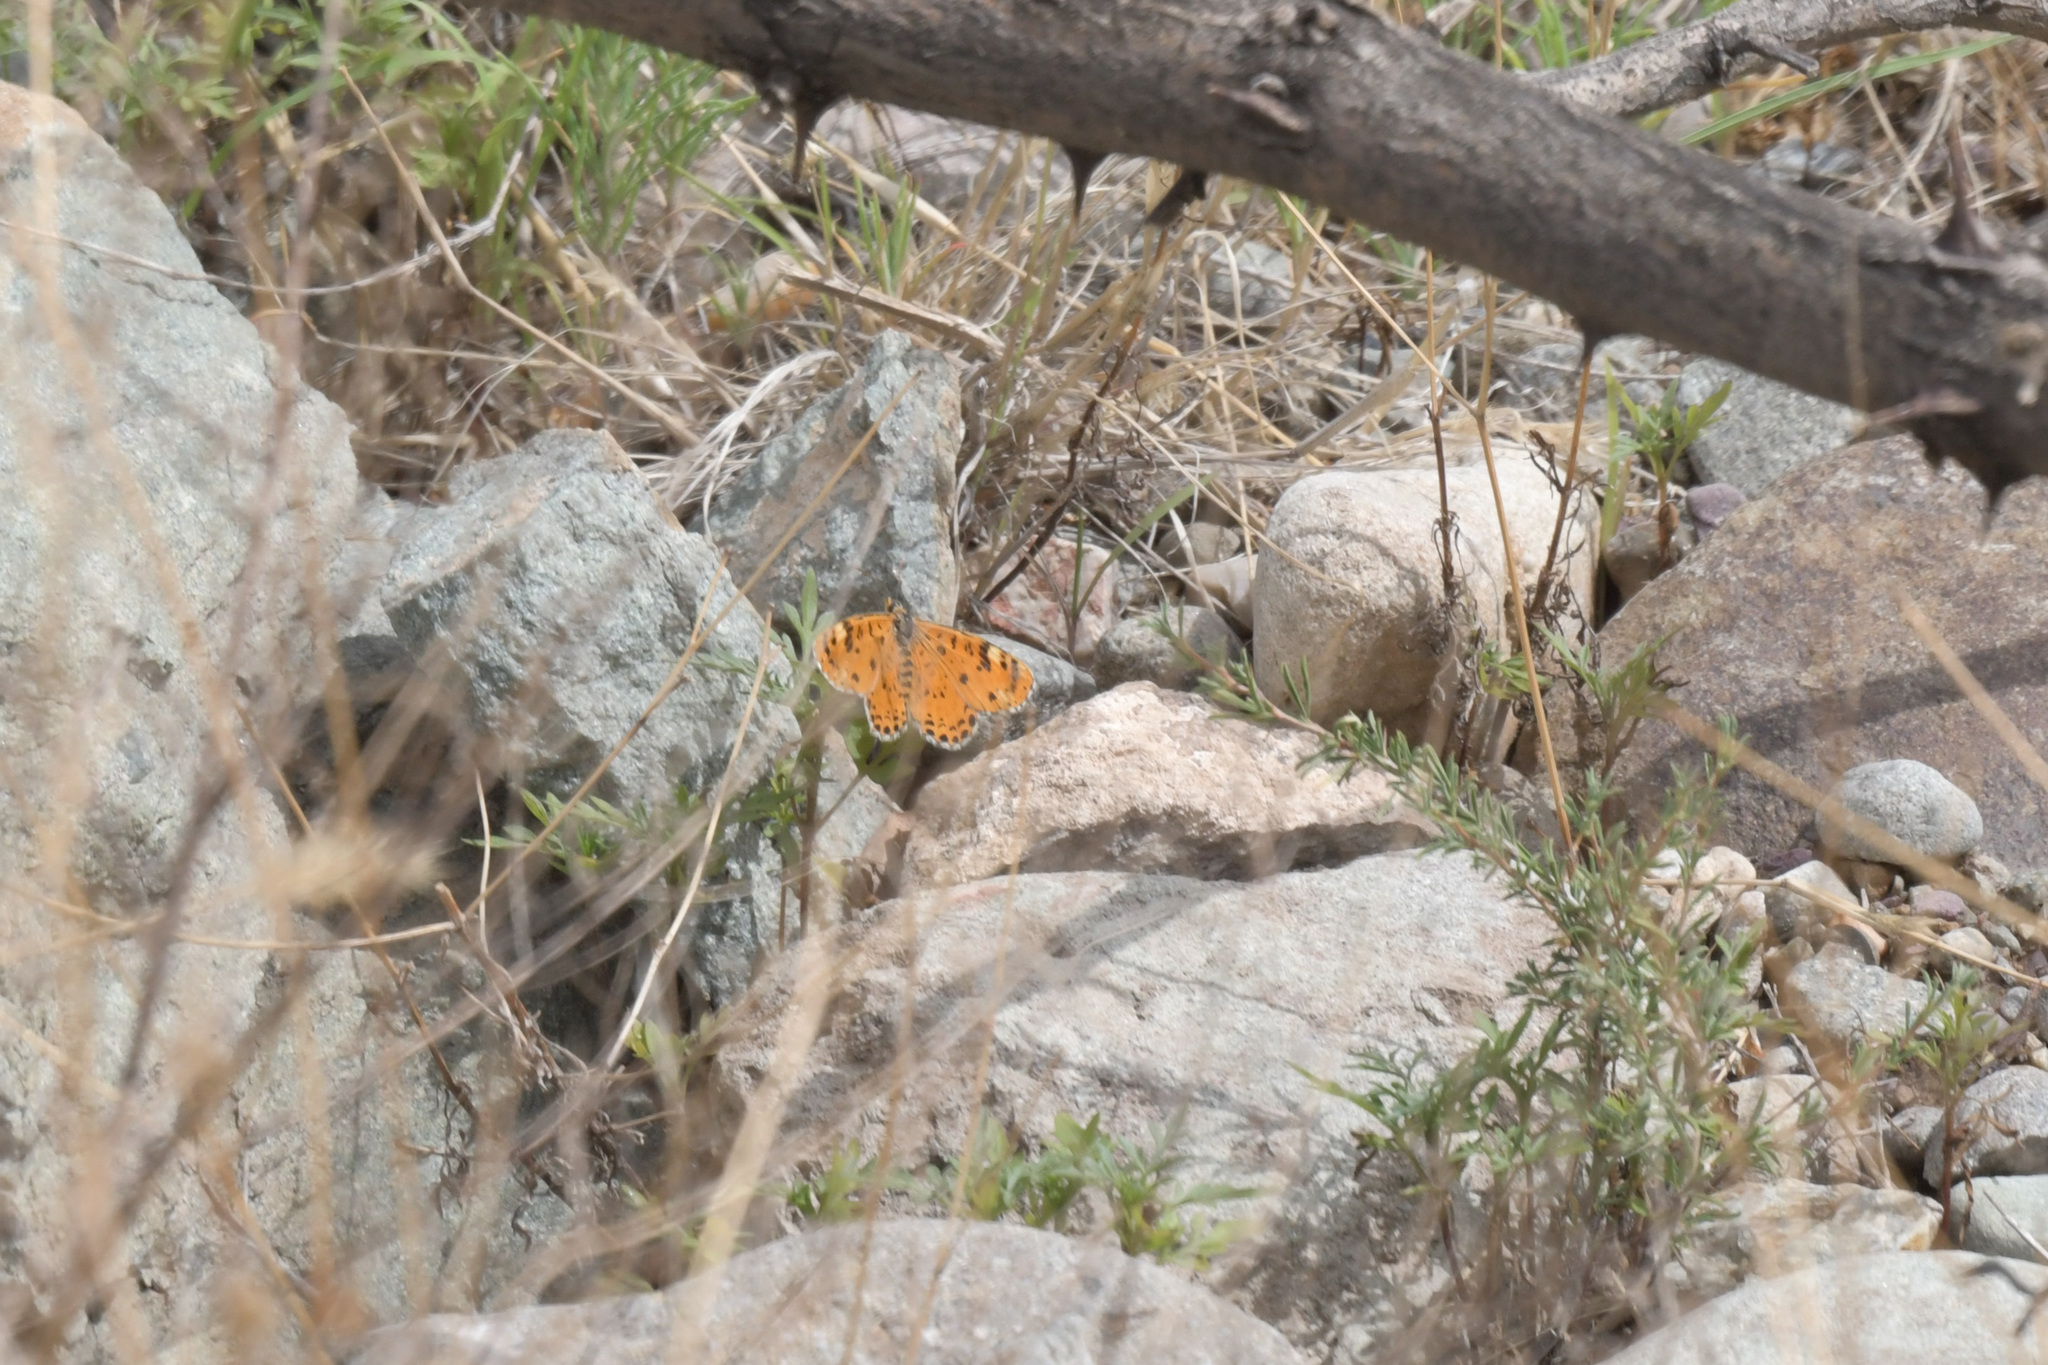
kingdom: Animalia
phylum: Arthropoda
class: Insecta
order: Lepidoptera
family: Nymphalidae
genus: Melitaea
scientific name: Melitaea romanovi
